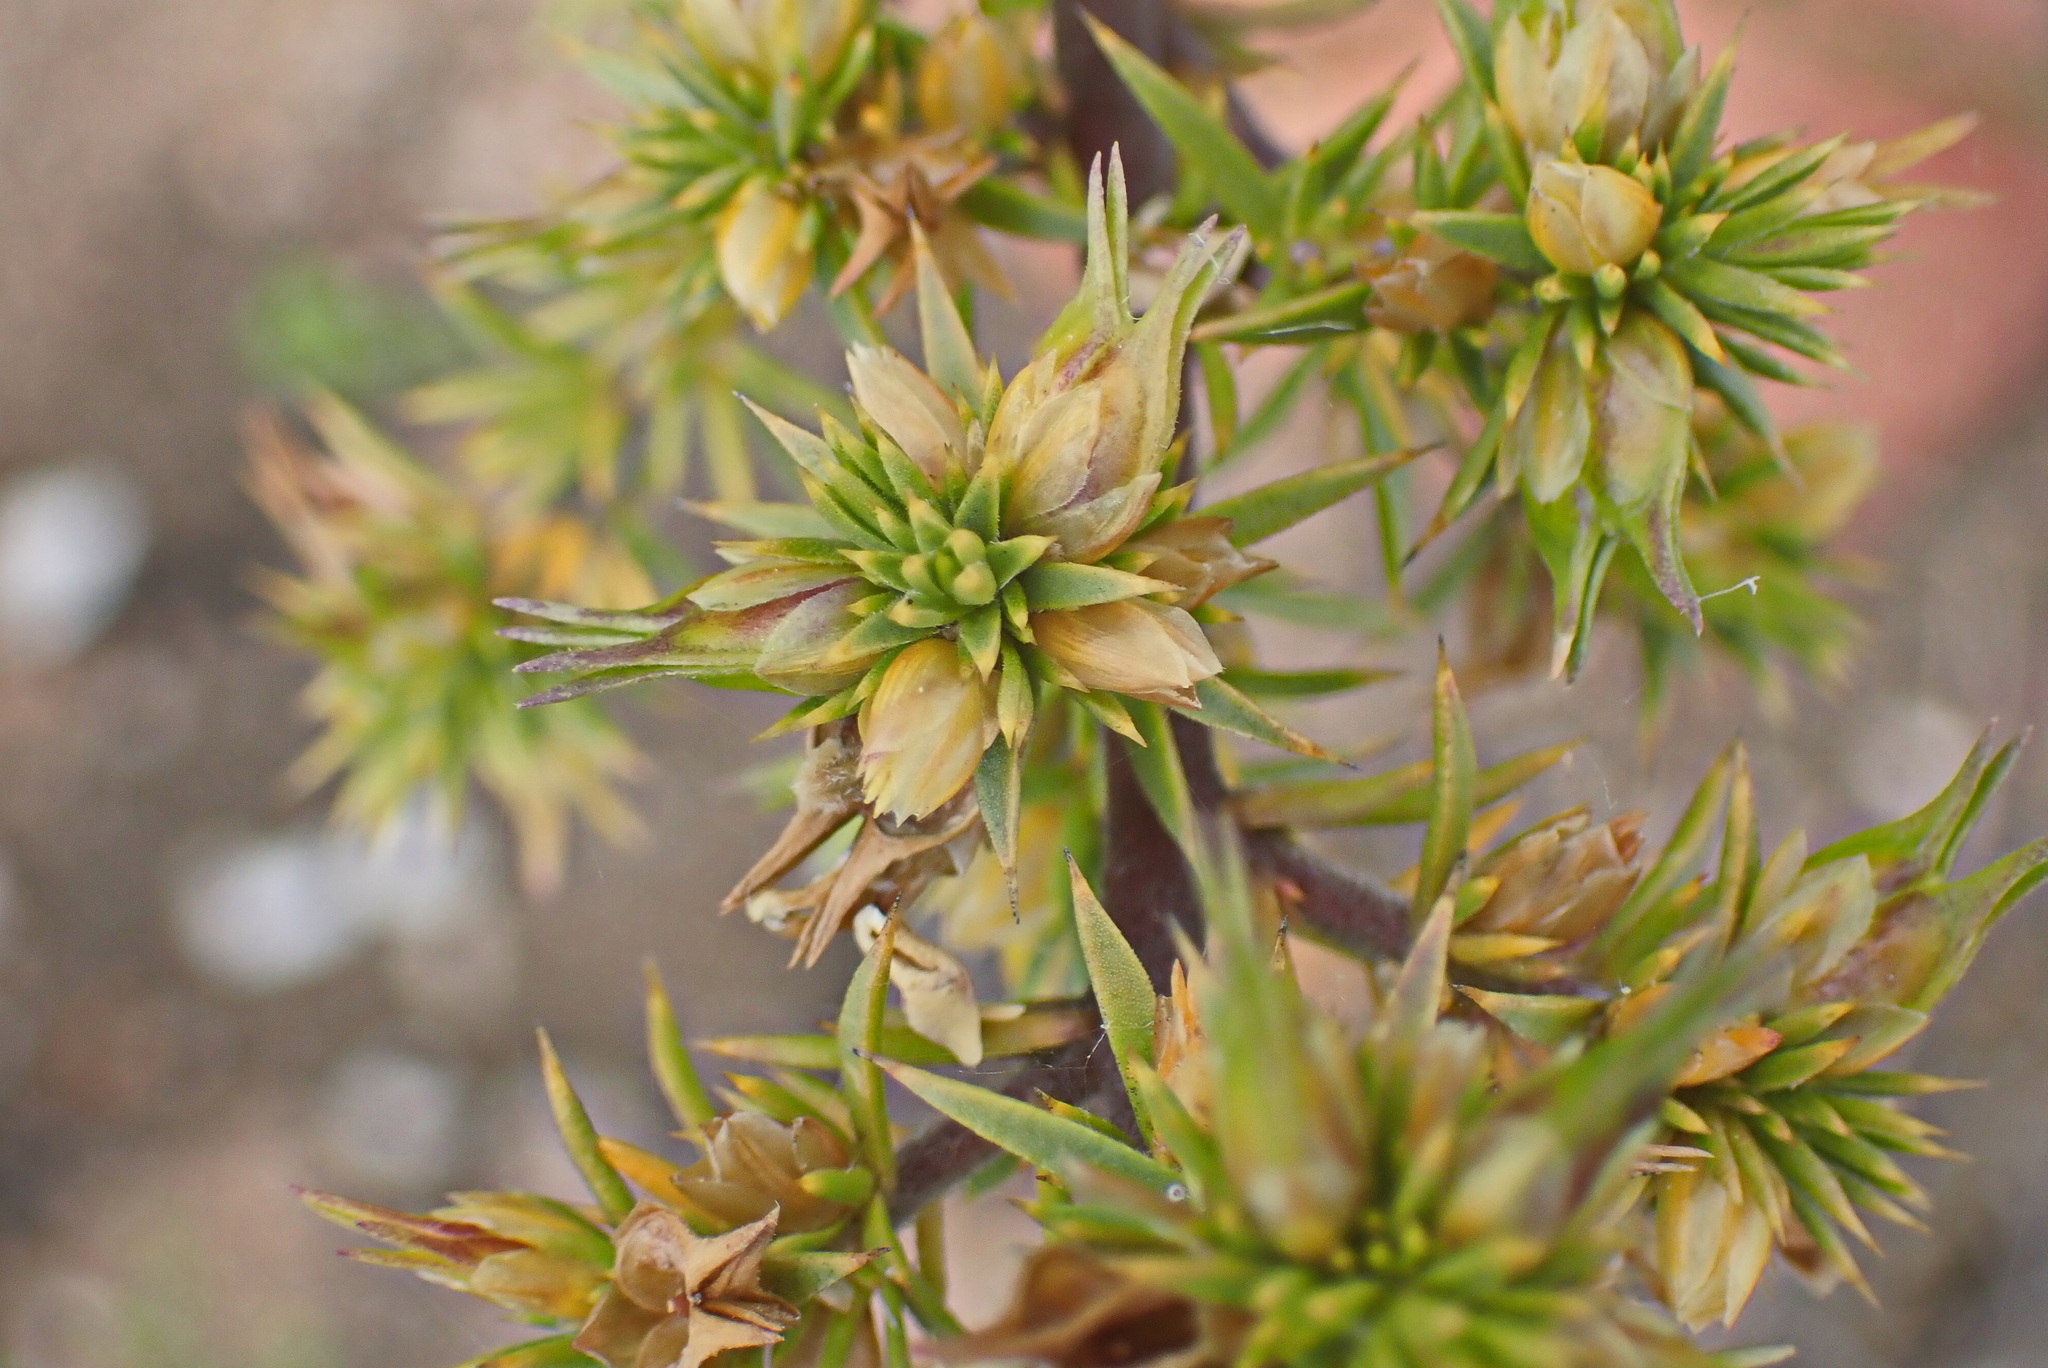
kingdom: Plantae
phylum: Tracheophyta
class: Magnoliopsida
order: Fabales
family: Polygalaceae
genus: Muraltia
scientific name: Muraltia ericifolia
